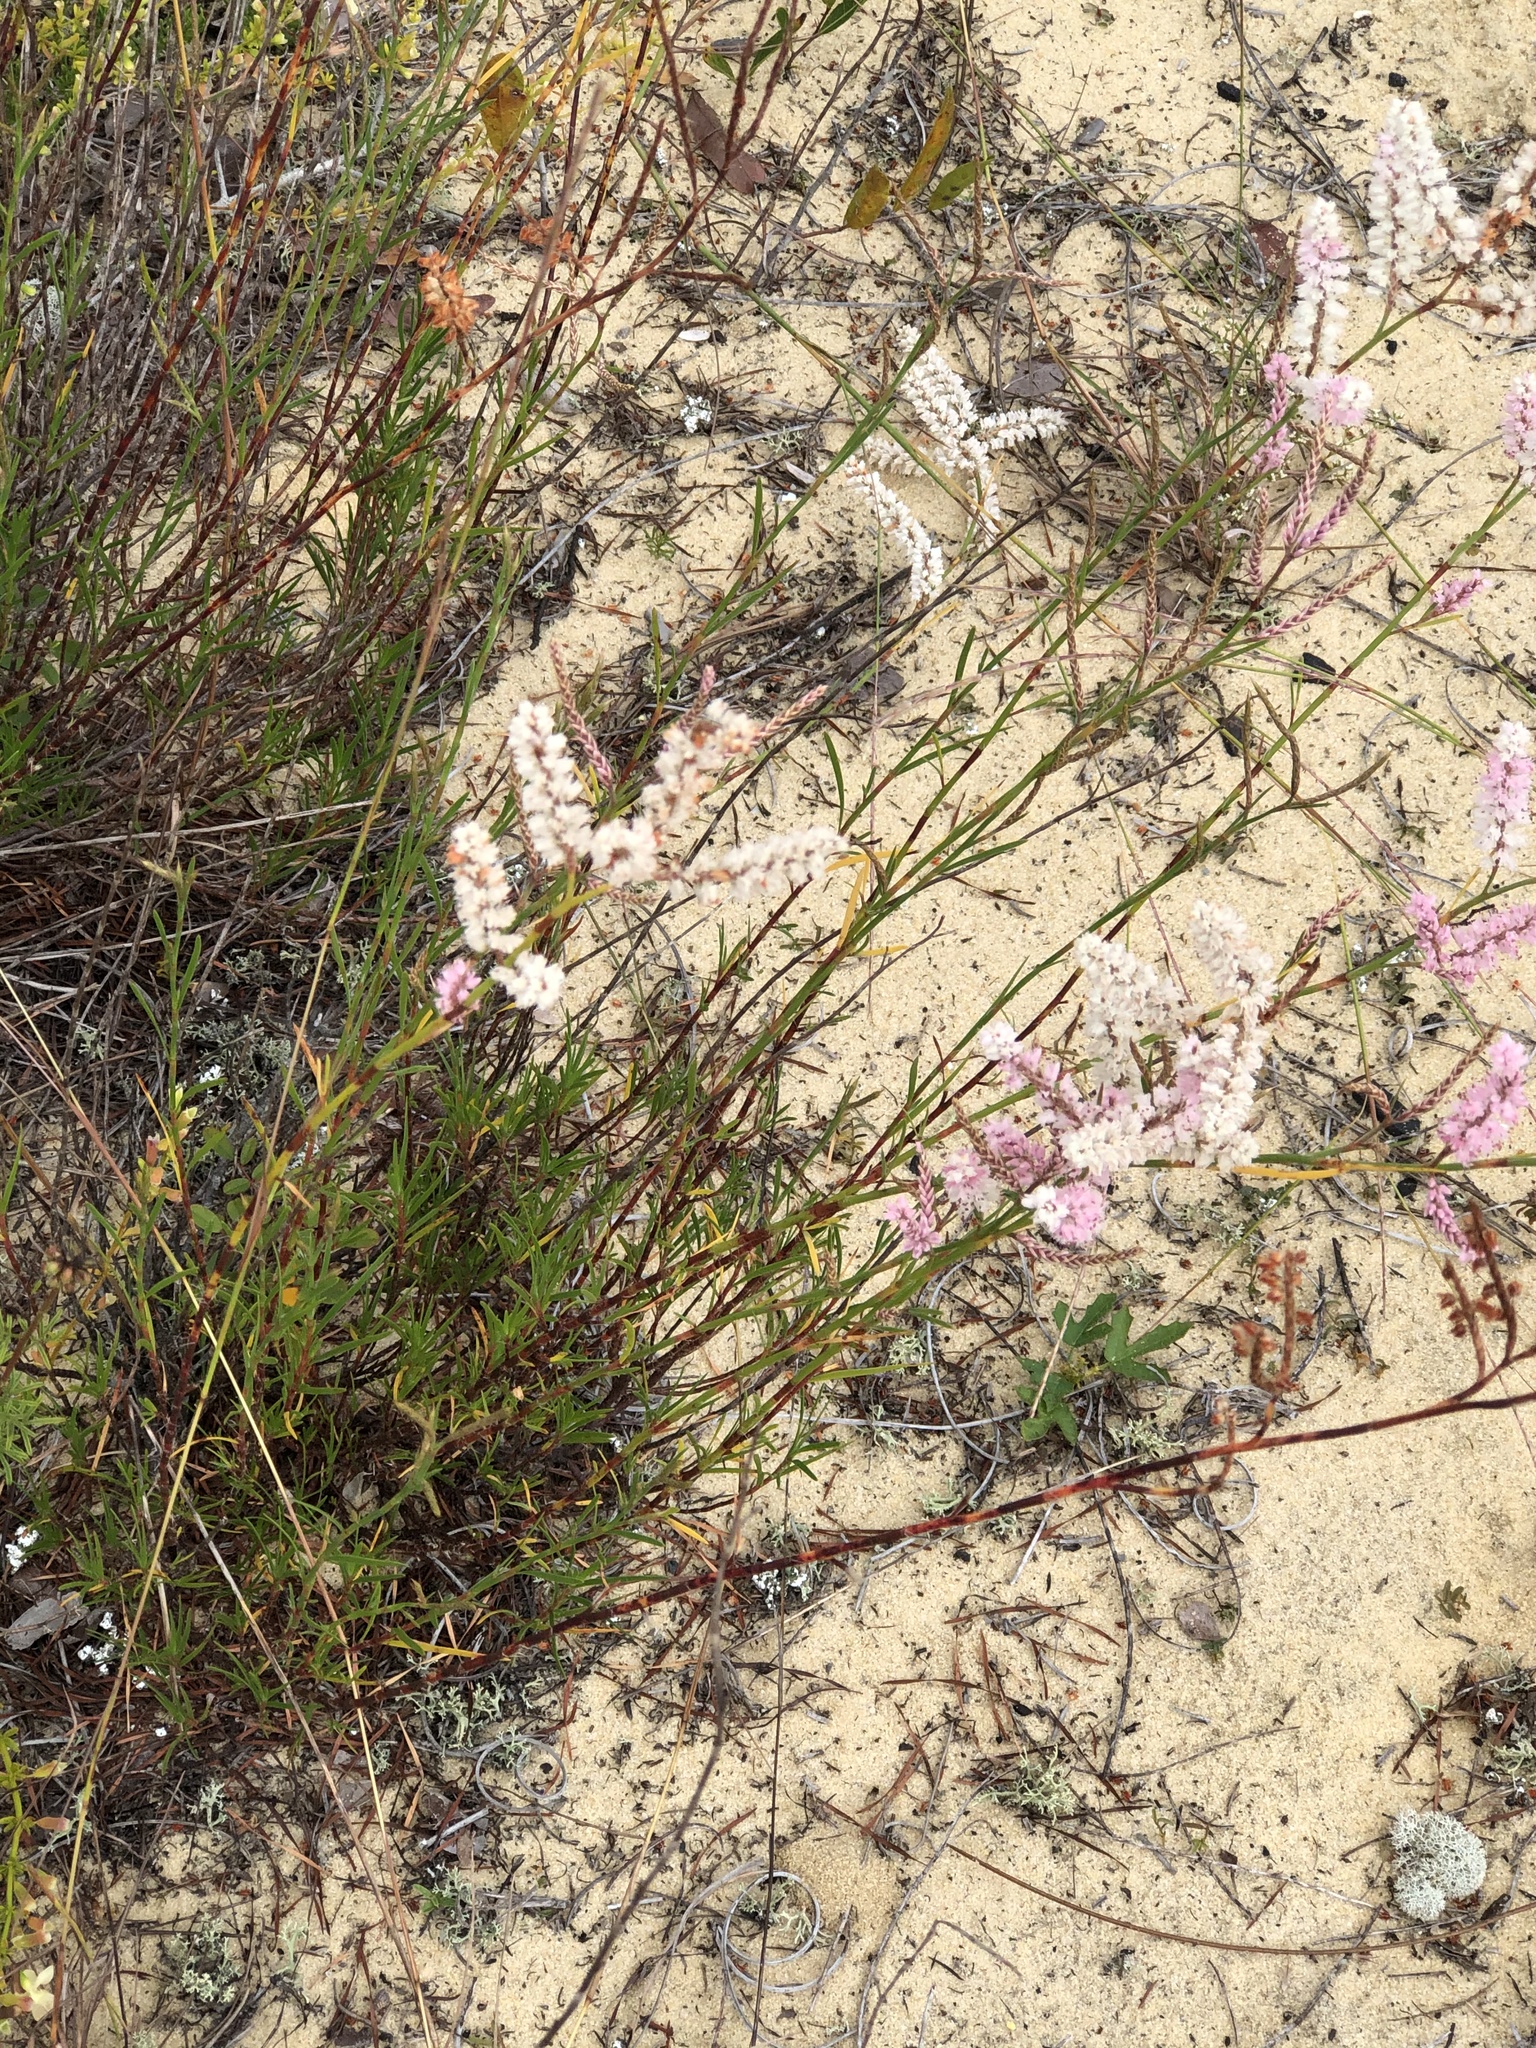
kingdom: Plantae
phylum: Tracheophyta
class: Magnoliopsida
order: Caryophyllales
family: Polygonaceae
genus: Polygonella
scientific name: Polygonella robusta
